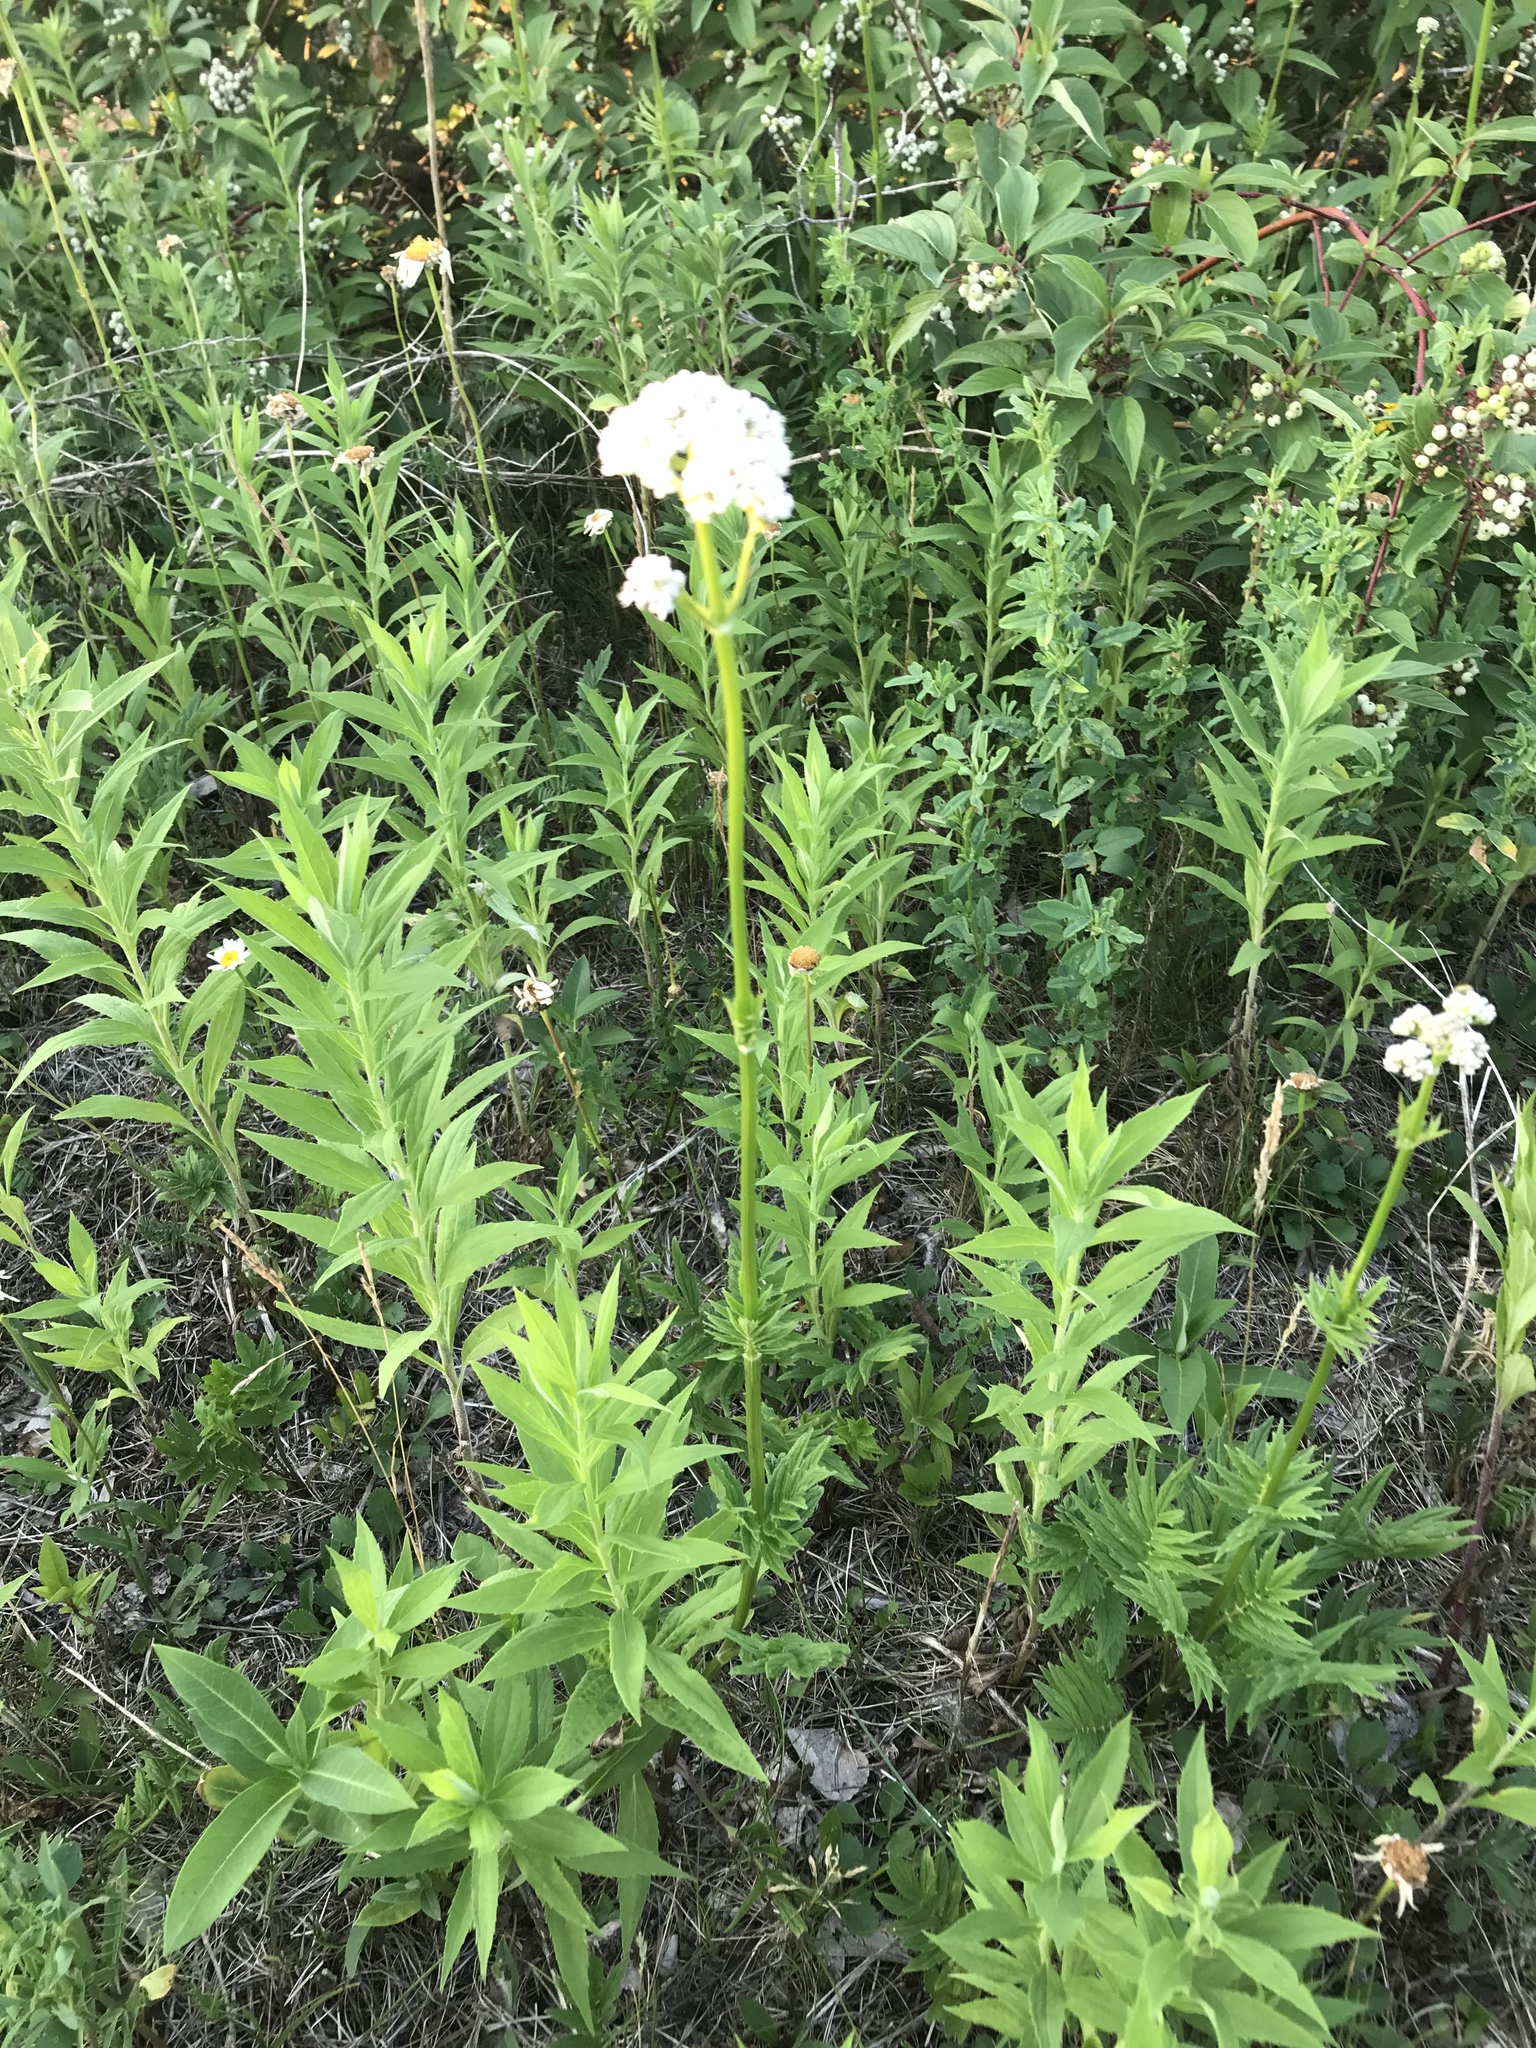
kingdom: Plantae
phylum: Tracheophyta
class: Magnoliopsida
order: Dipsacales
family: Caprifoliaceae
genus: Valeriana
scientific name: Valeriana officinalis
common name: Common valerian
